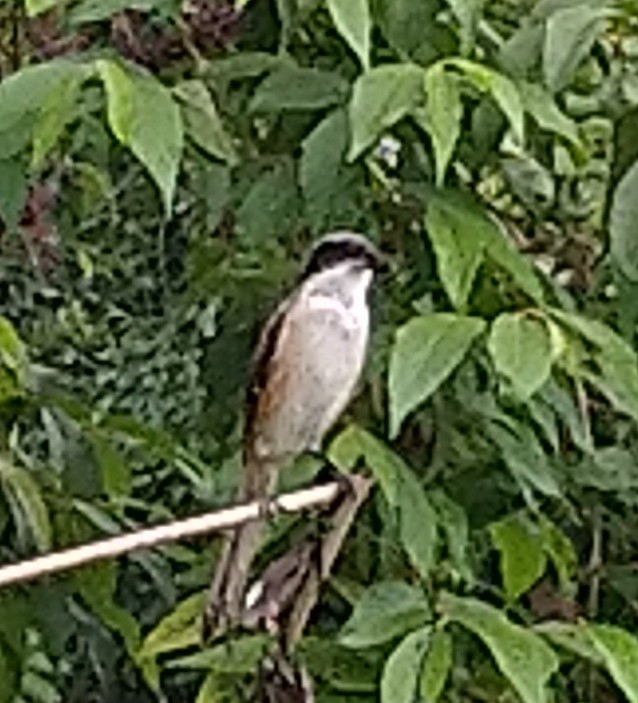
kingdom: Animalia
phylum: Chordata
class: Aves
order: Passeriformes
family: Laniidae
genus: Lanius
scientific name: Lanius schach
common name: Long-tailed shrike
